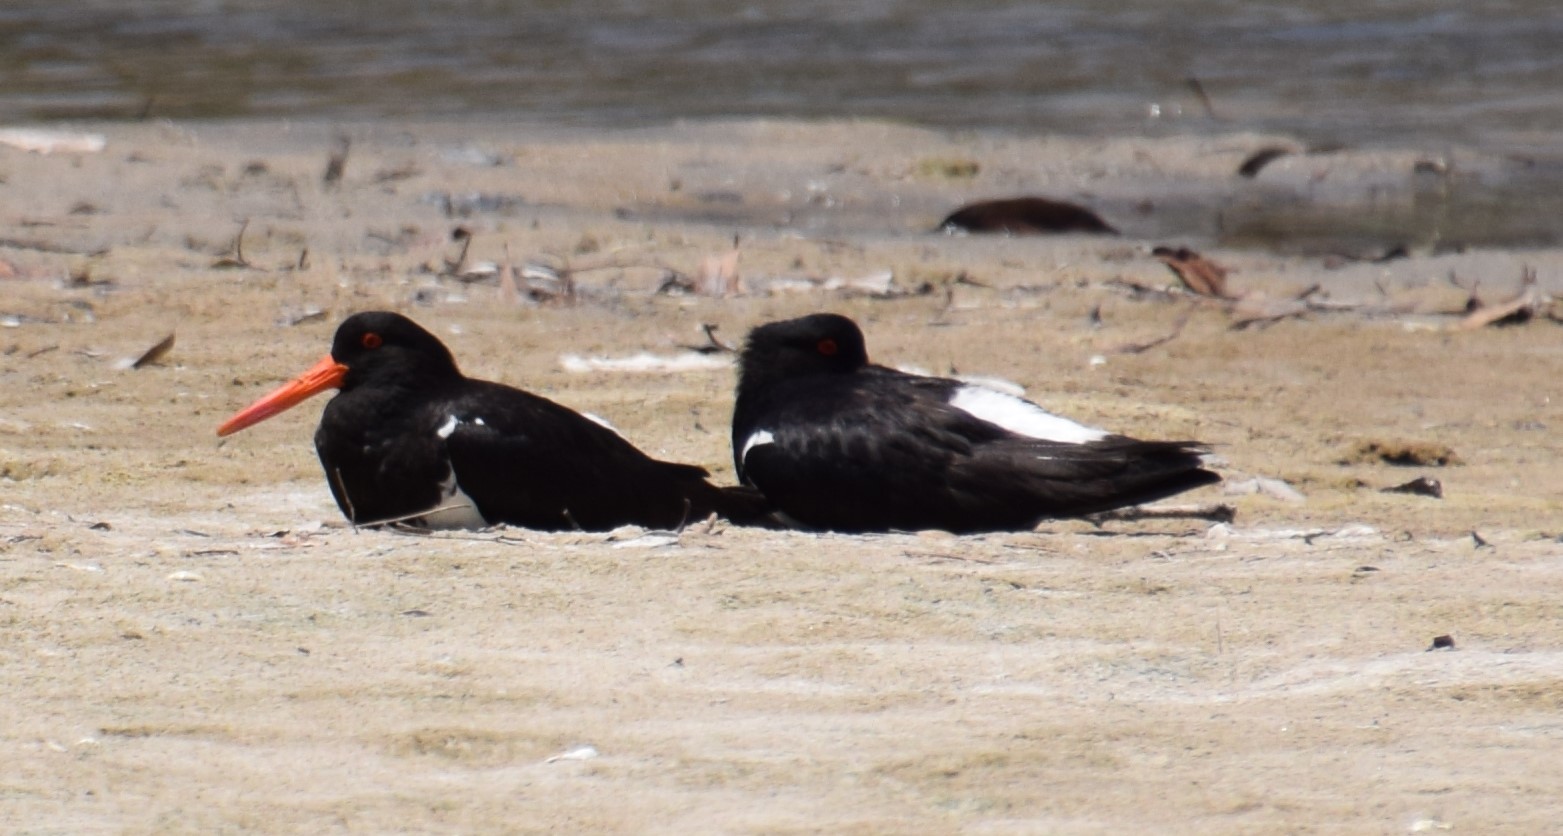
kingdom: Animalia
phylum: Chordata
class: Aves
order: Charadriiformes
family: Haematopodidae
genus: Haematopus
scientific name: Haematopus longirostris
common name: Pied oystercatcher
